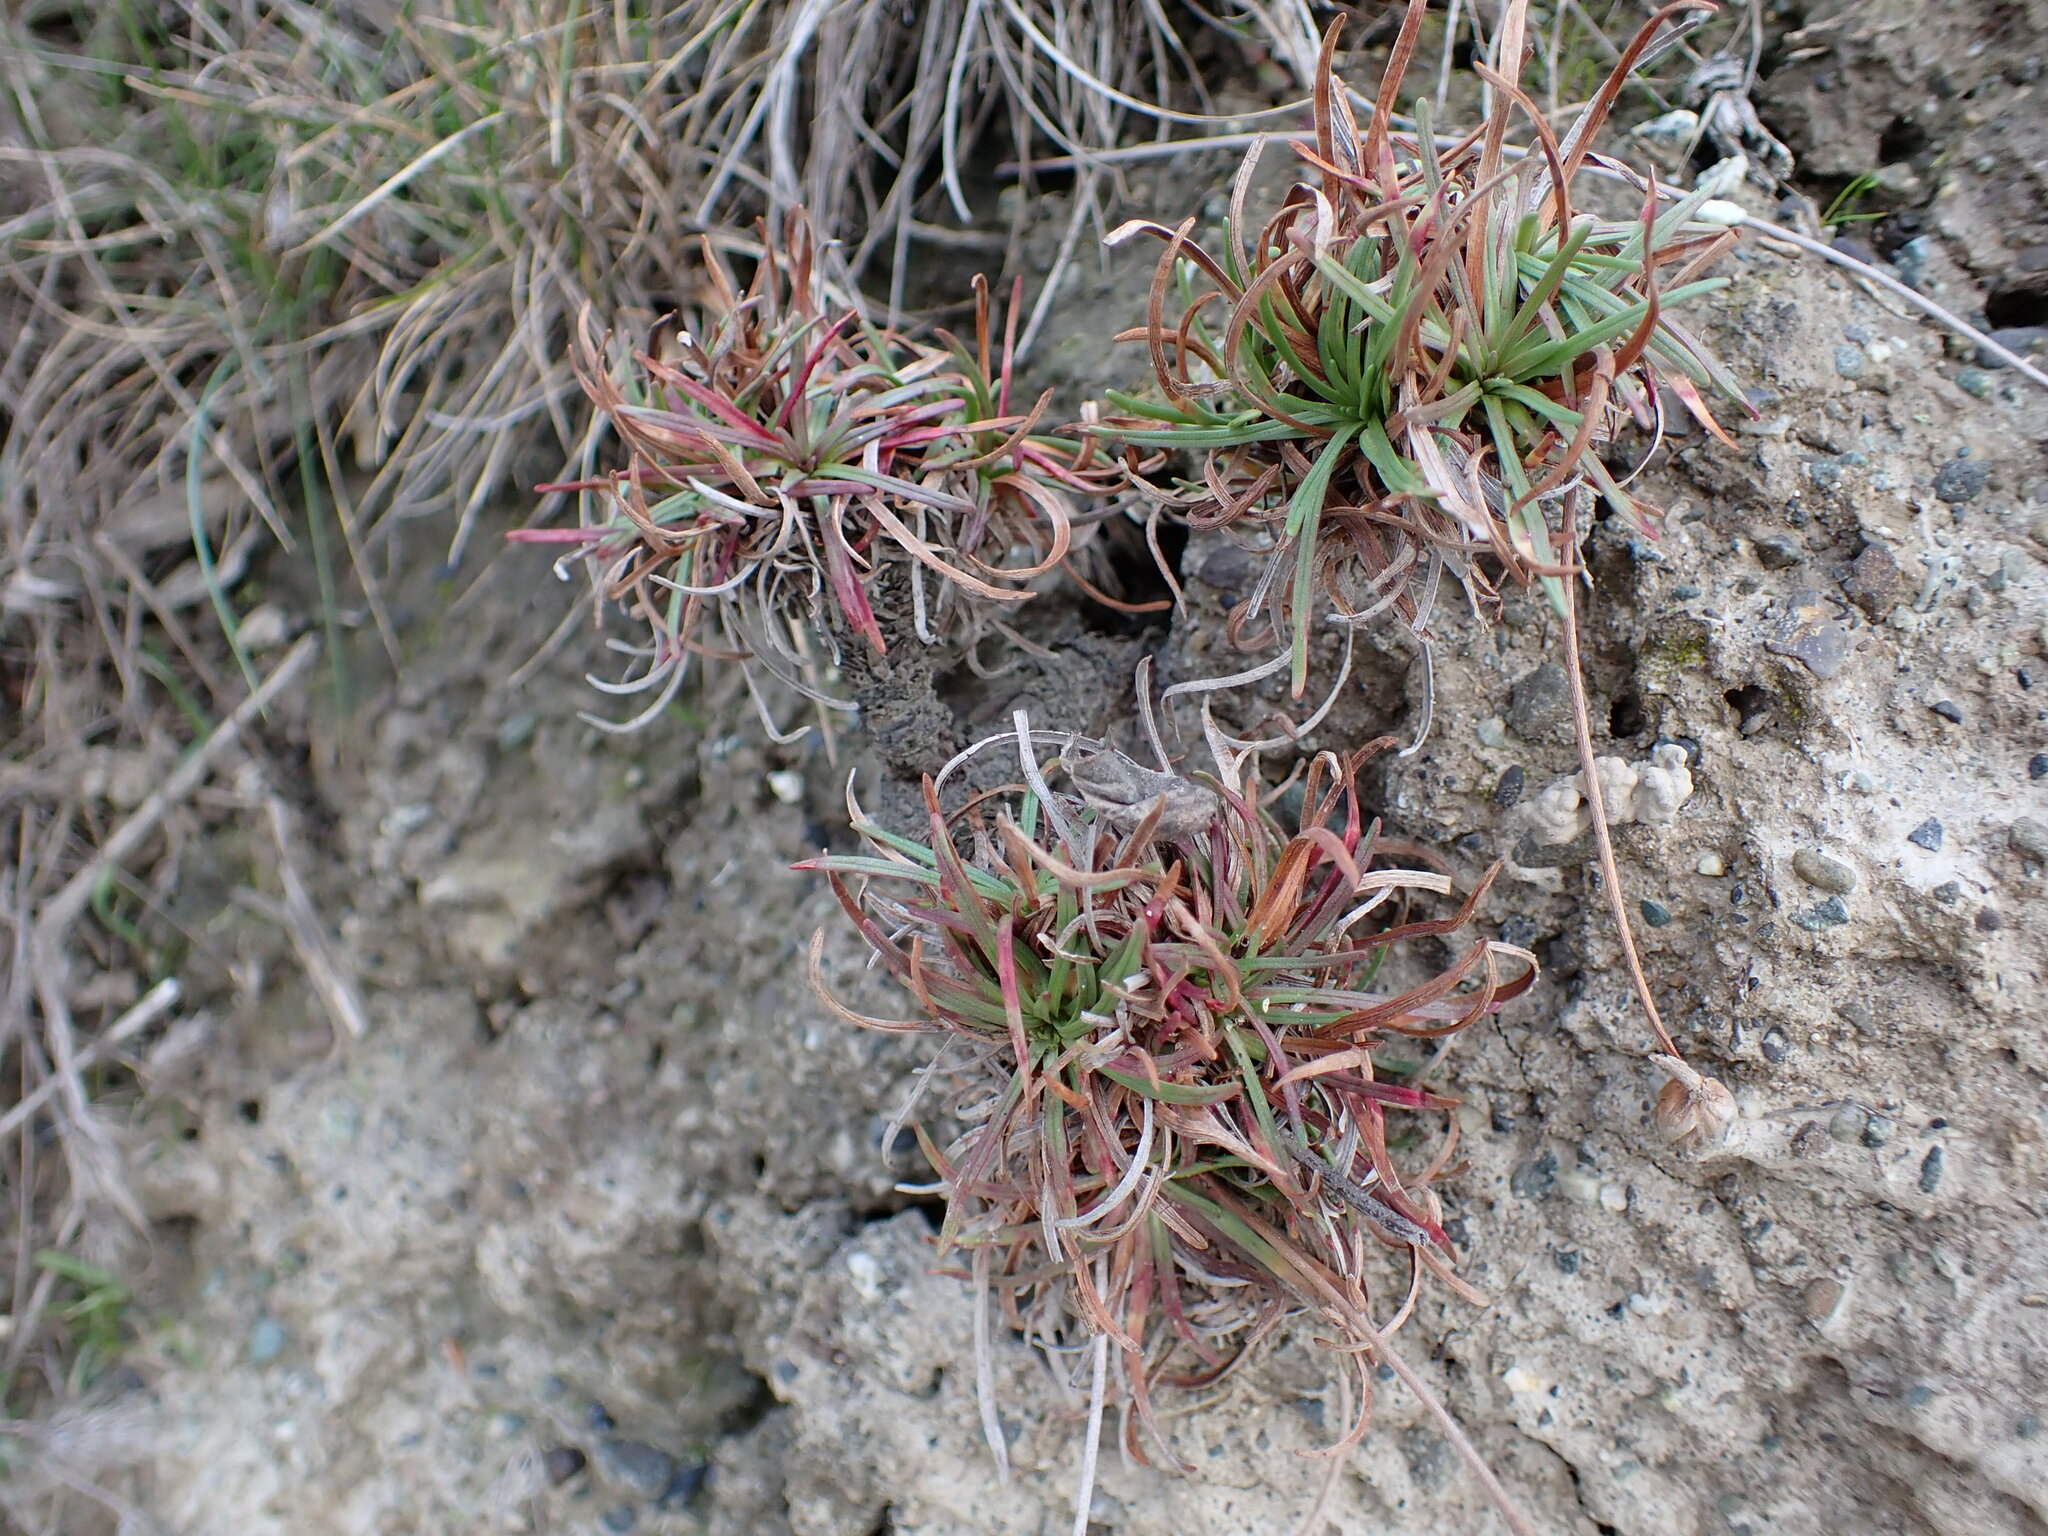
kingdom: Plantae
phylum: Tracheophyta
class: Magnoliopsida
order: Caryophyllales
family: Plumbaginaceae
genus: Armeria
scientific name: Armeria maritima
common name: Thrift
